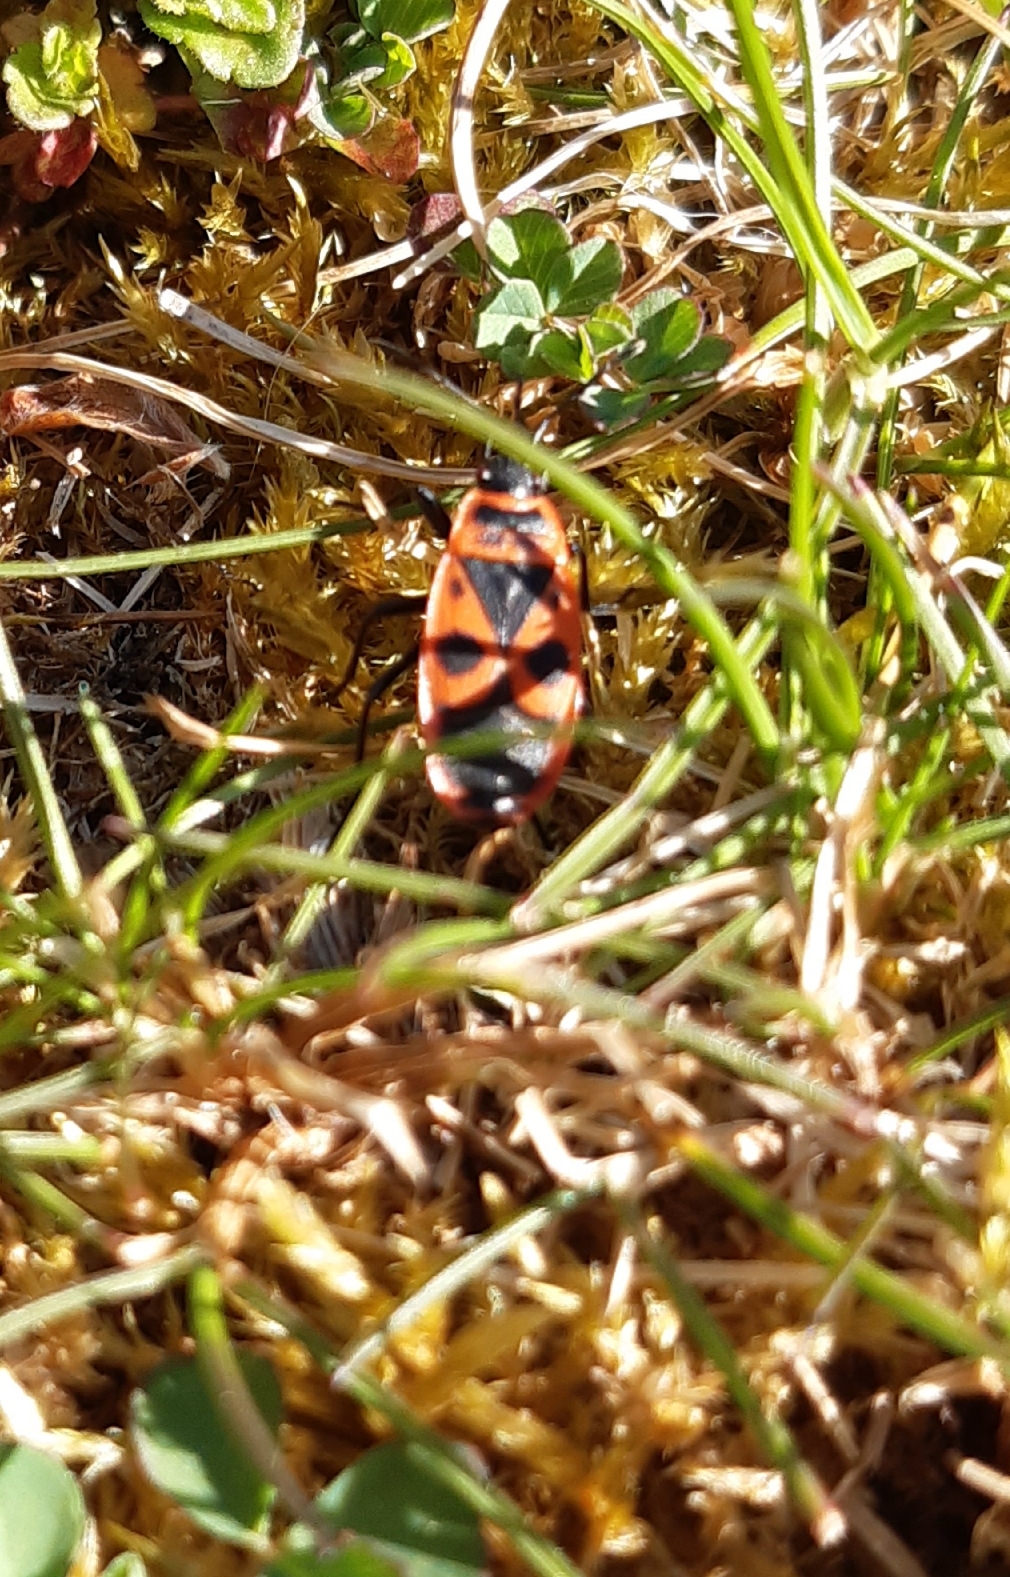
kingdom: Animalia
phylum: Arthropoda
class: Insecta
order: Hemiptera
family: Pyrrhocoridae
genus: Pyrrhocoris
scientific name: Pyrrhocoris apterus
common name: Firebug
